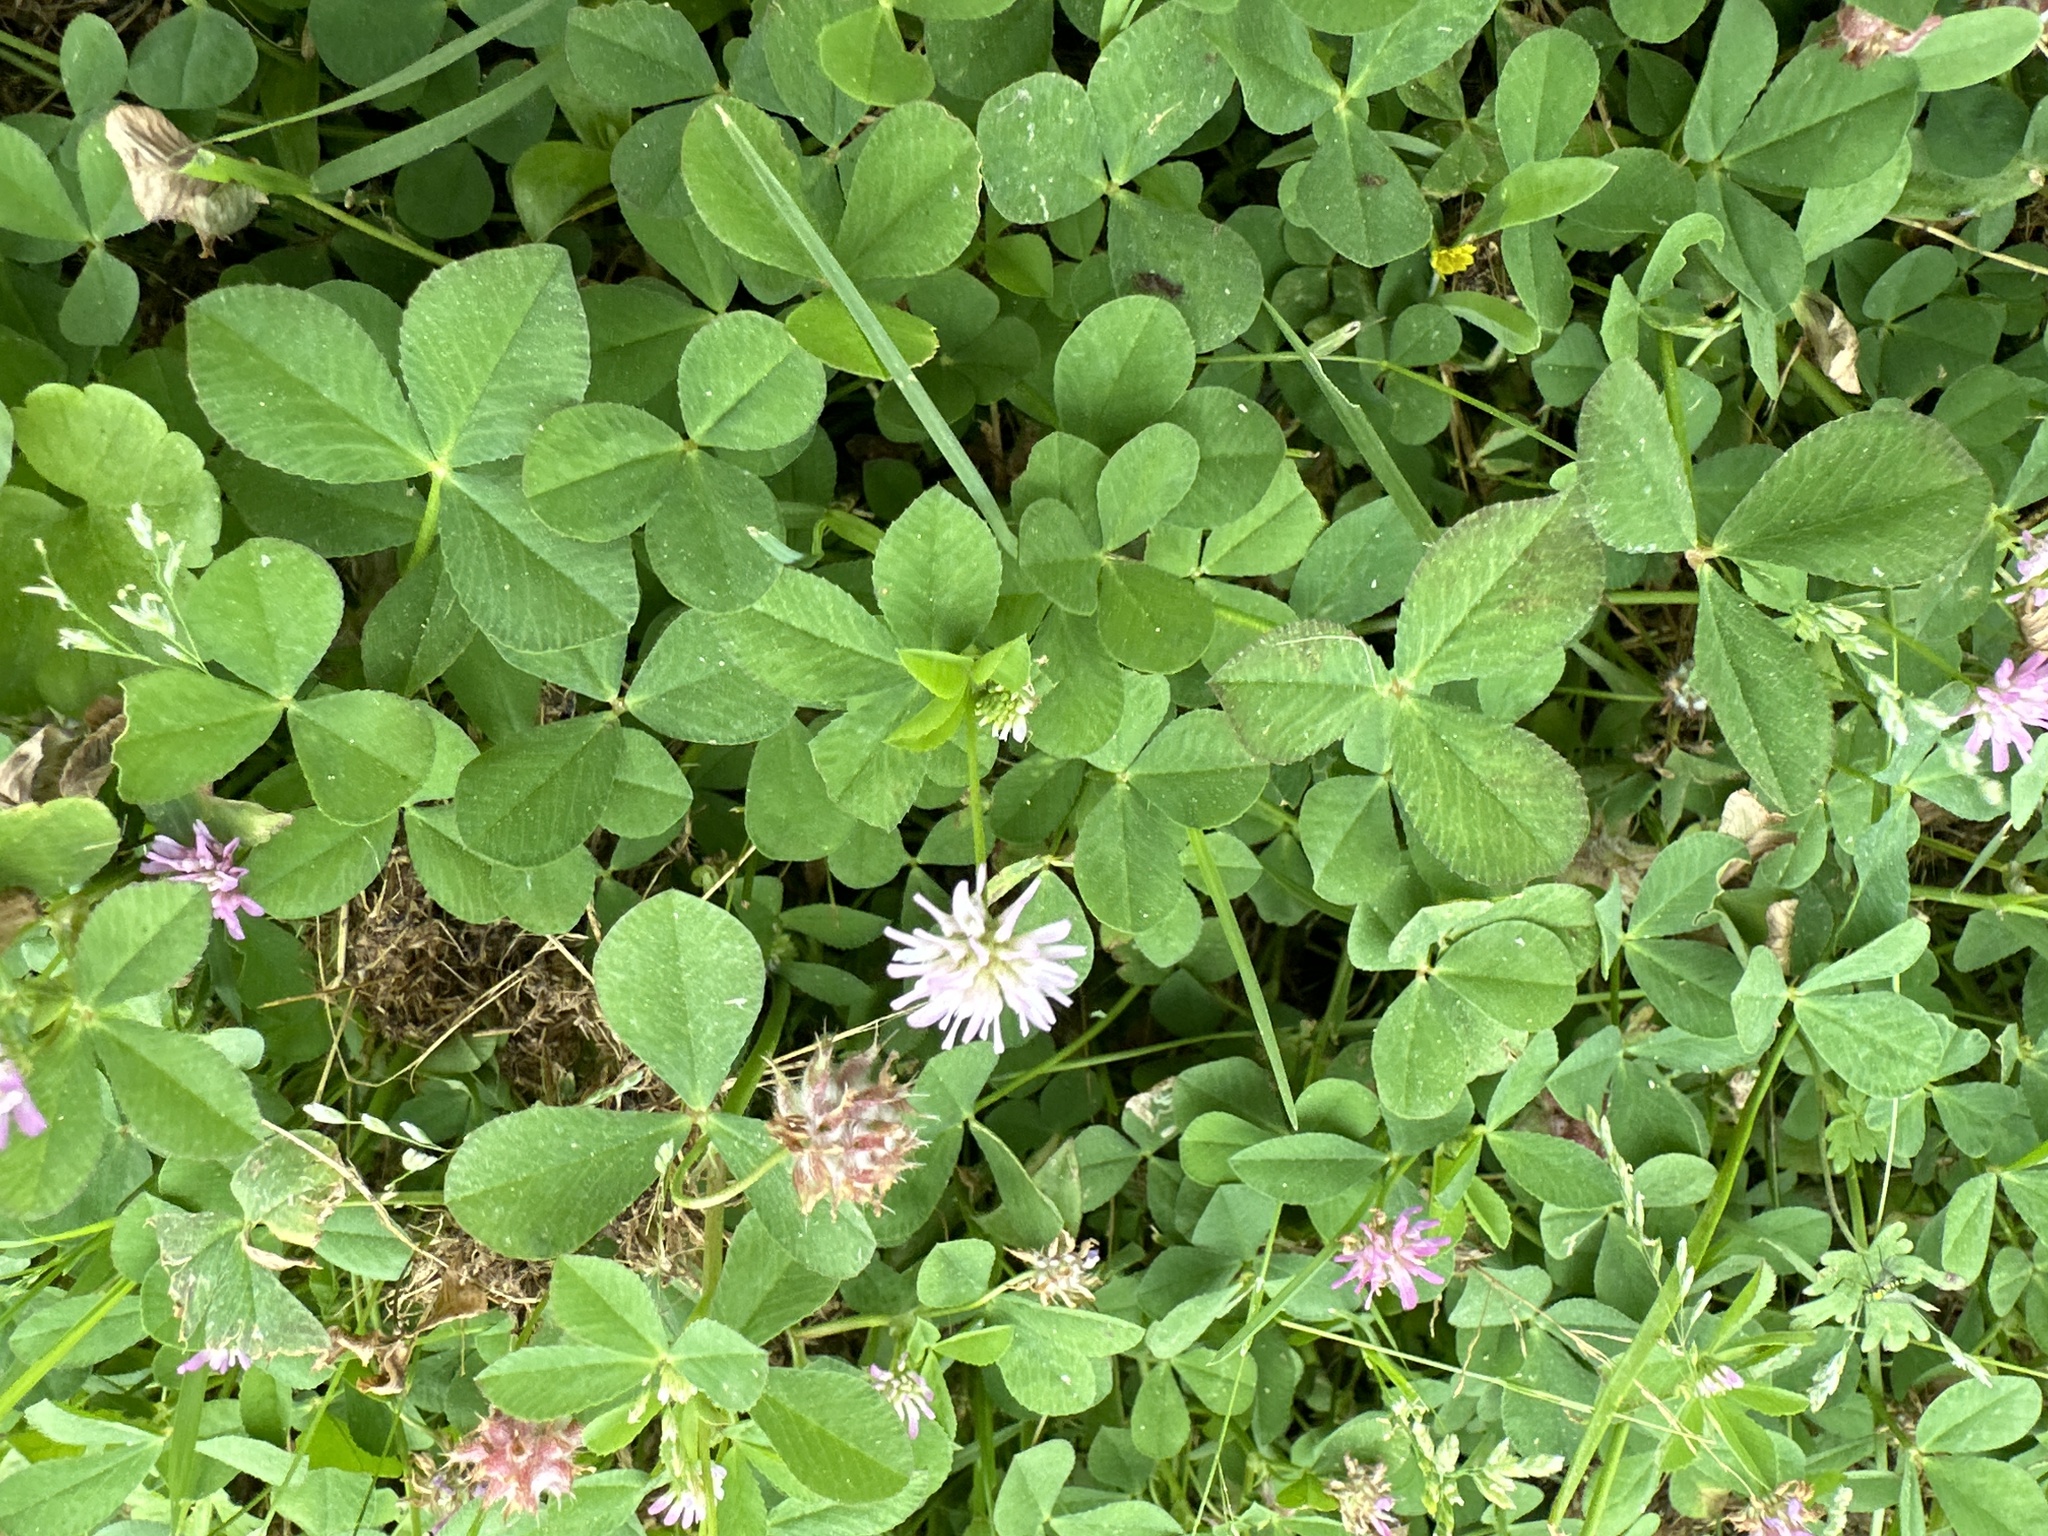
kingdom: Plantae
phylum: Tracheophyta
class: Magnoliopsida
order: Fabales
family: Fabaceae
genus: Trifolium
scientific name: Trifolium resupinatum
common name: Reversed clover
